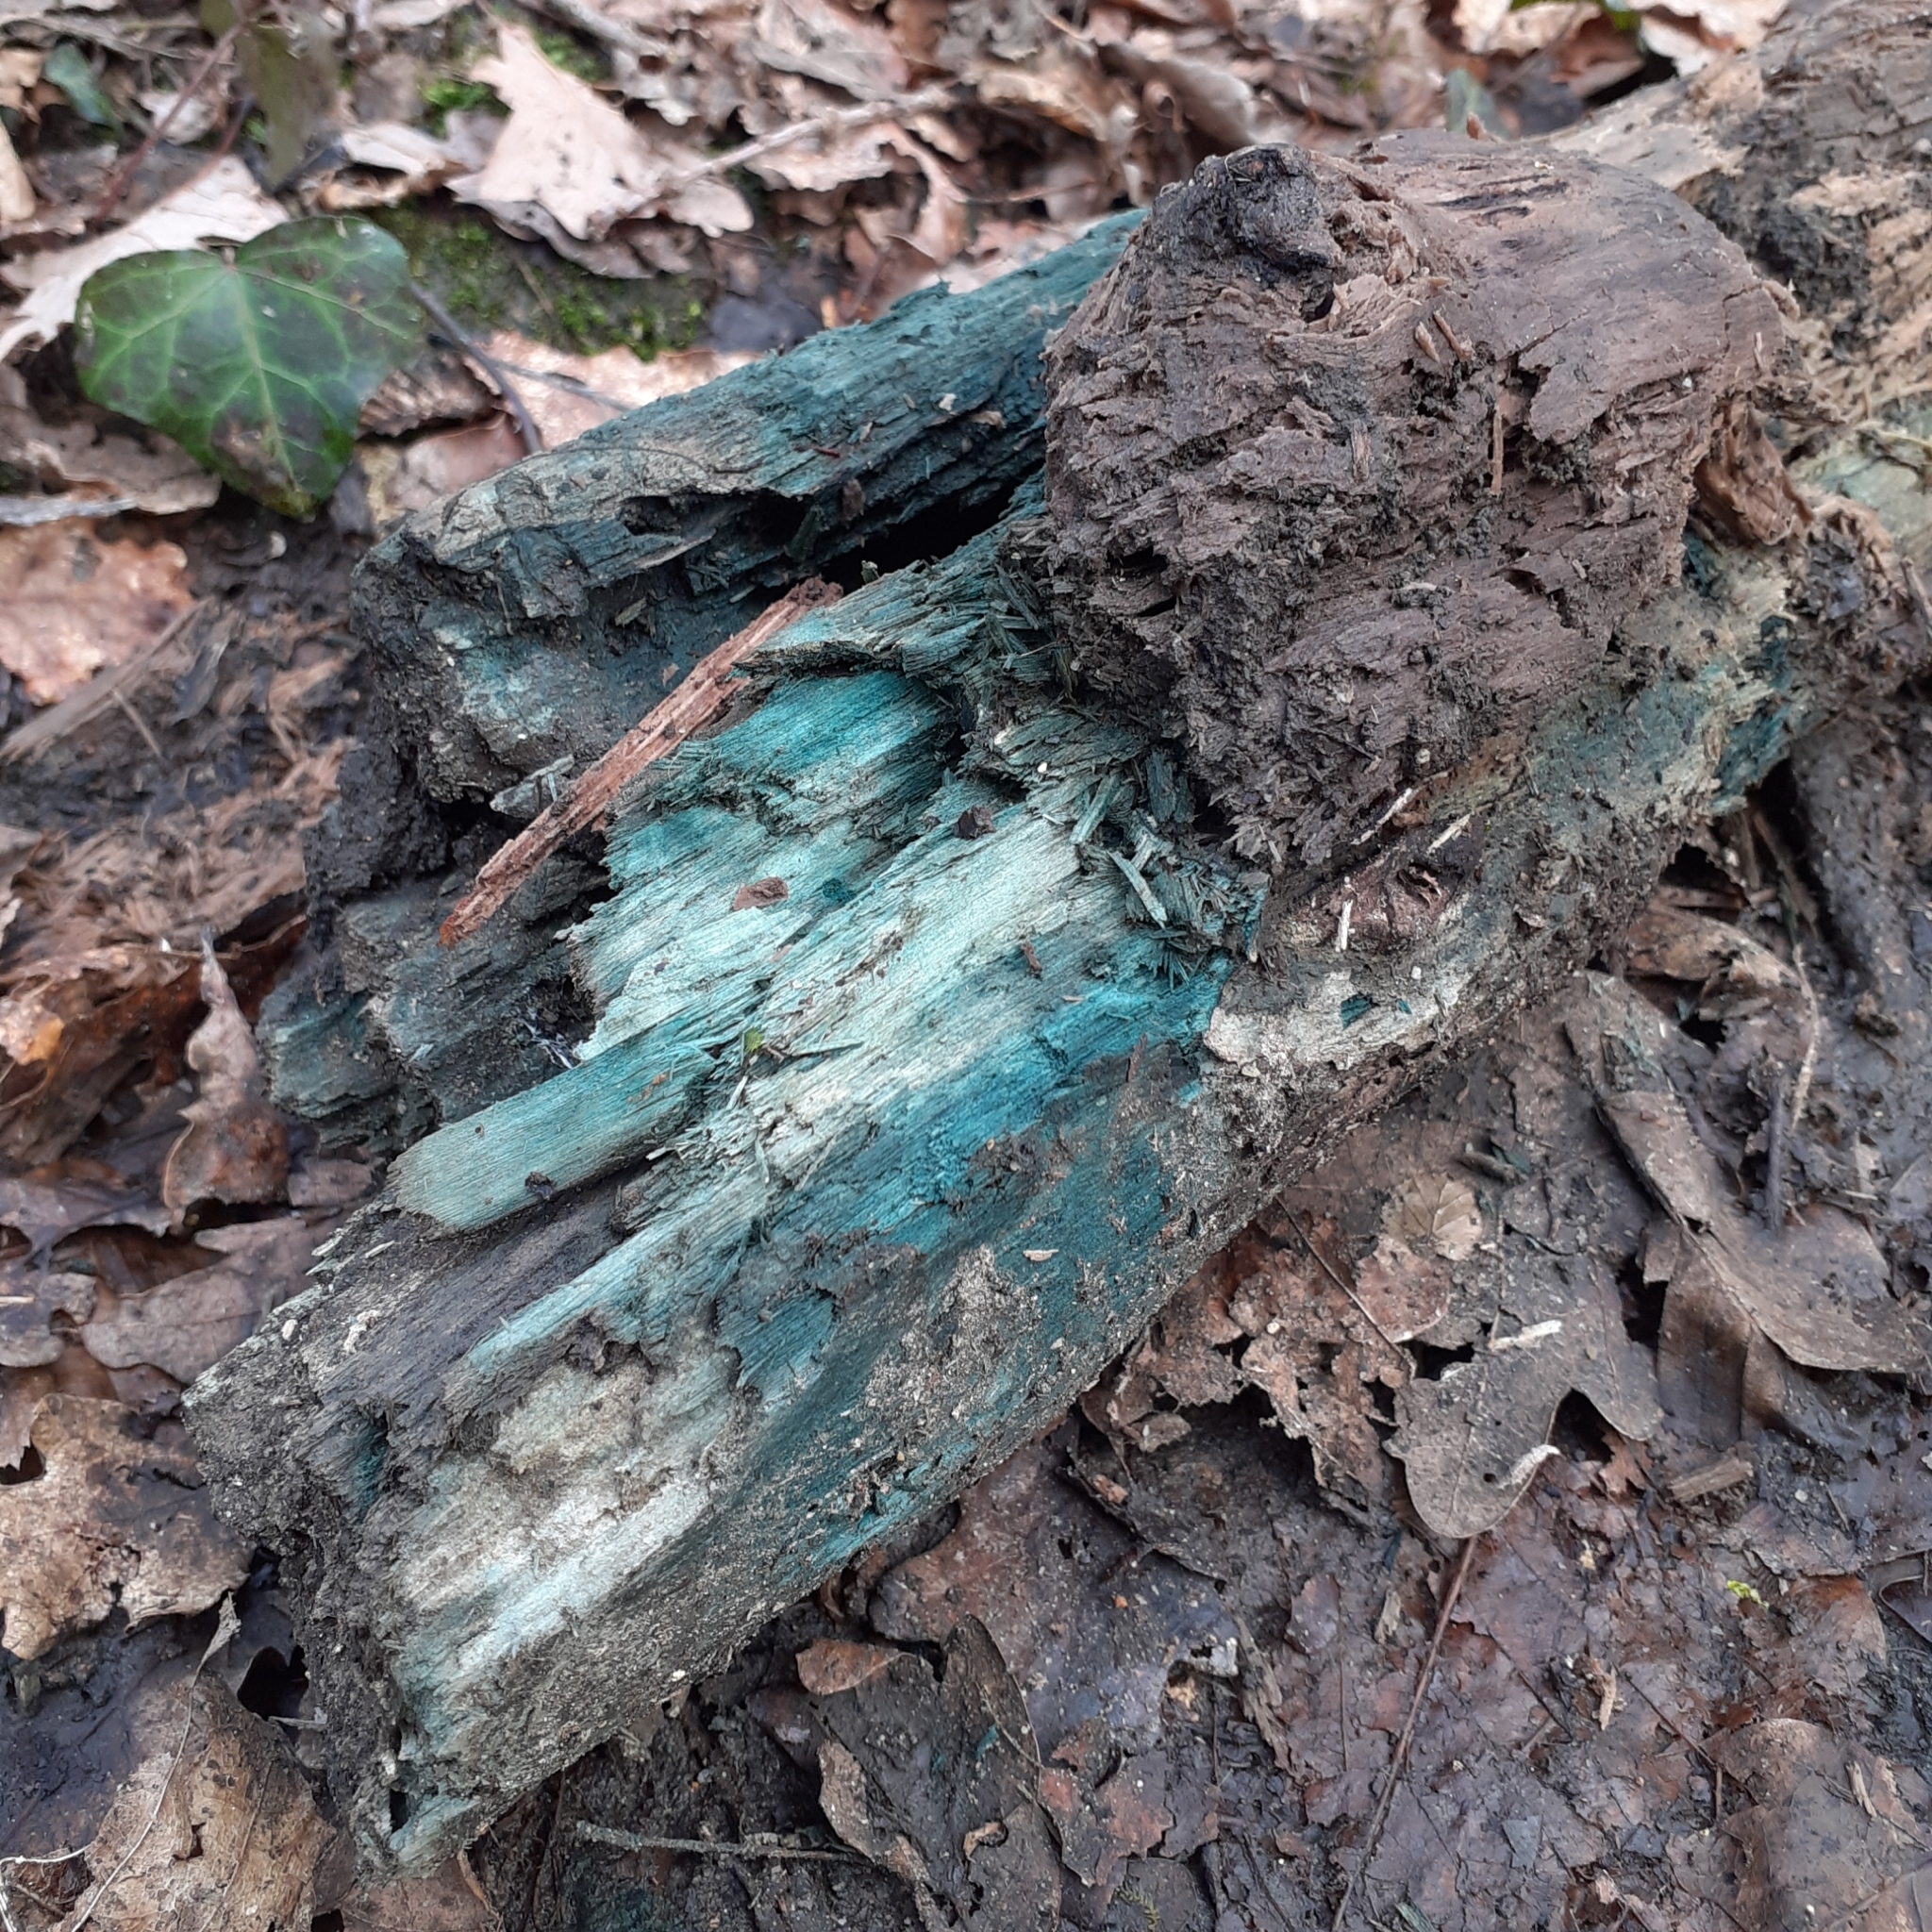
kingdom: Fungi
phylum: Ascomycota
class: Leotiomycetes
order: Helotiales
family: Chlorociboriaceae
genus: Chlorociboria
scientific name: Chlorociboria
